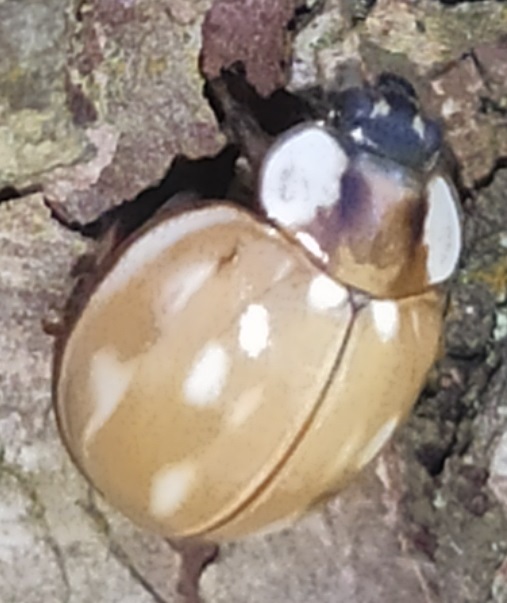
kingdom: Animalia
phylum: Arthropoda
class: Insecta
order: Coleoptera
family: Coccinellidae
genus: Myzia
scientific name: Myzia oblongoguttata
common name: Striped ladybird
